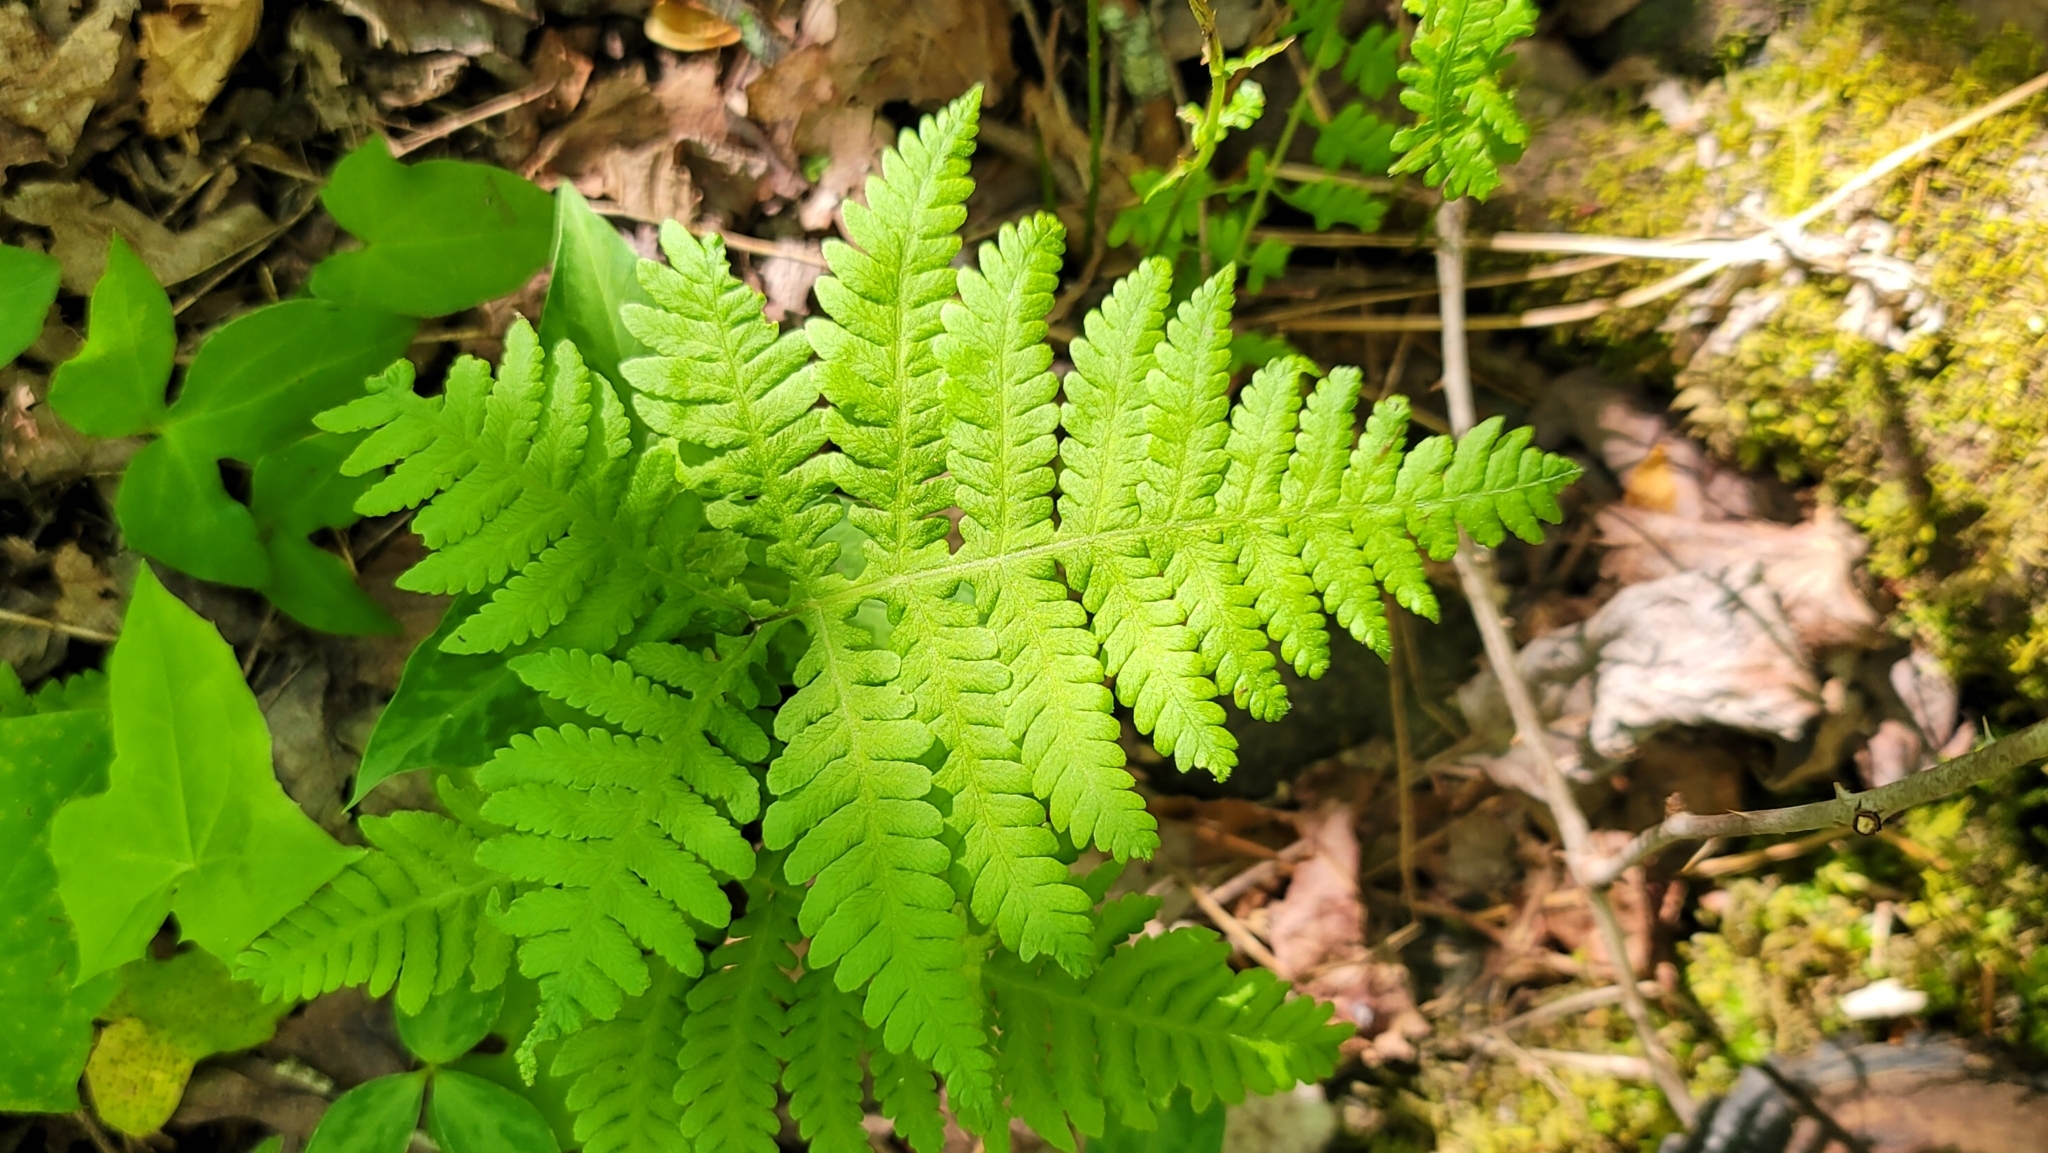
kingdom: Plantae
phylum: Tracheophyta
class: Polypodiopsida
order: Polypodiales
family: Thelypteridaceae
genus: Phegopteris
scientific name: Phegopteris hexagonoptera
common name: Broad beech fern
